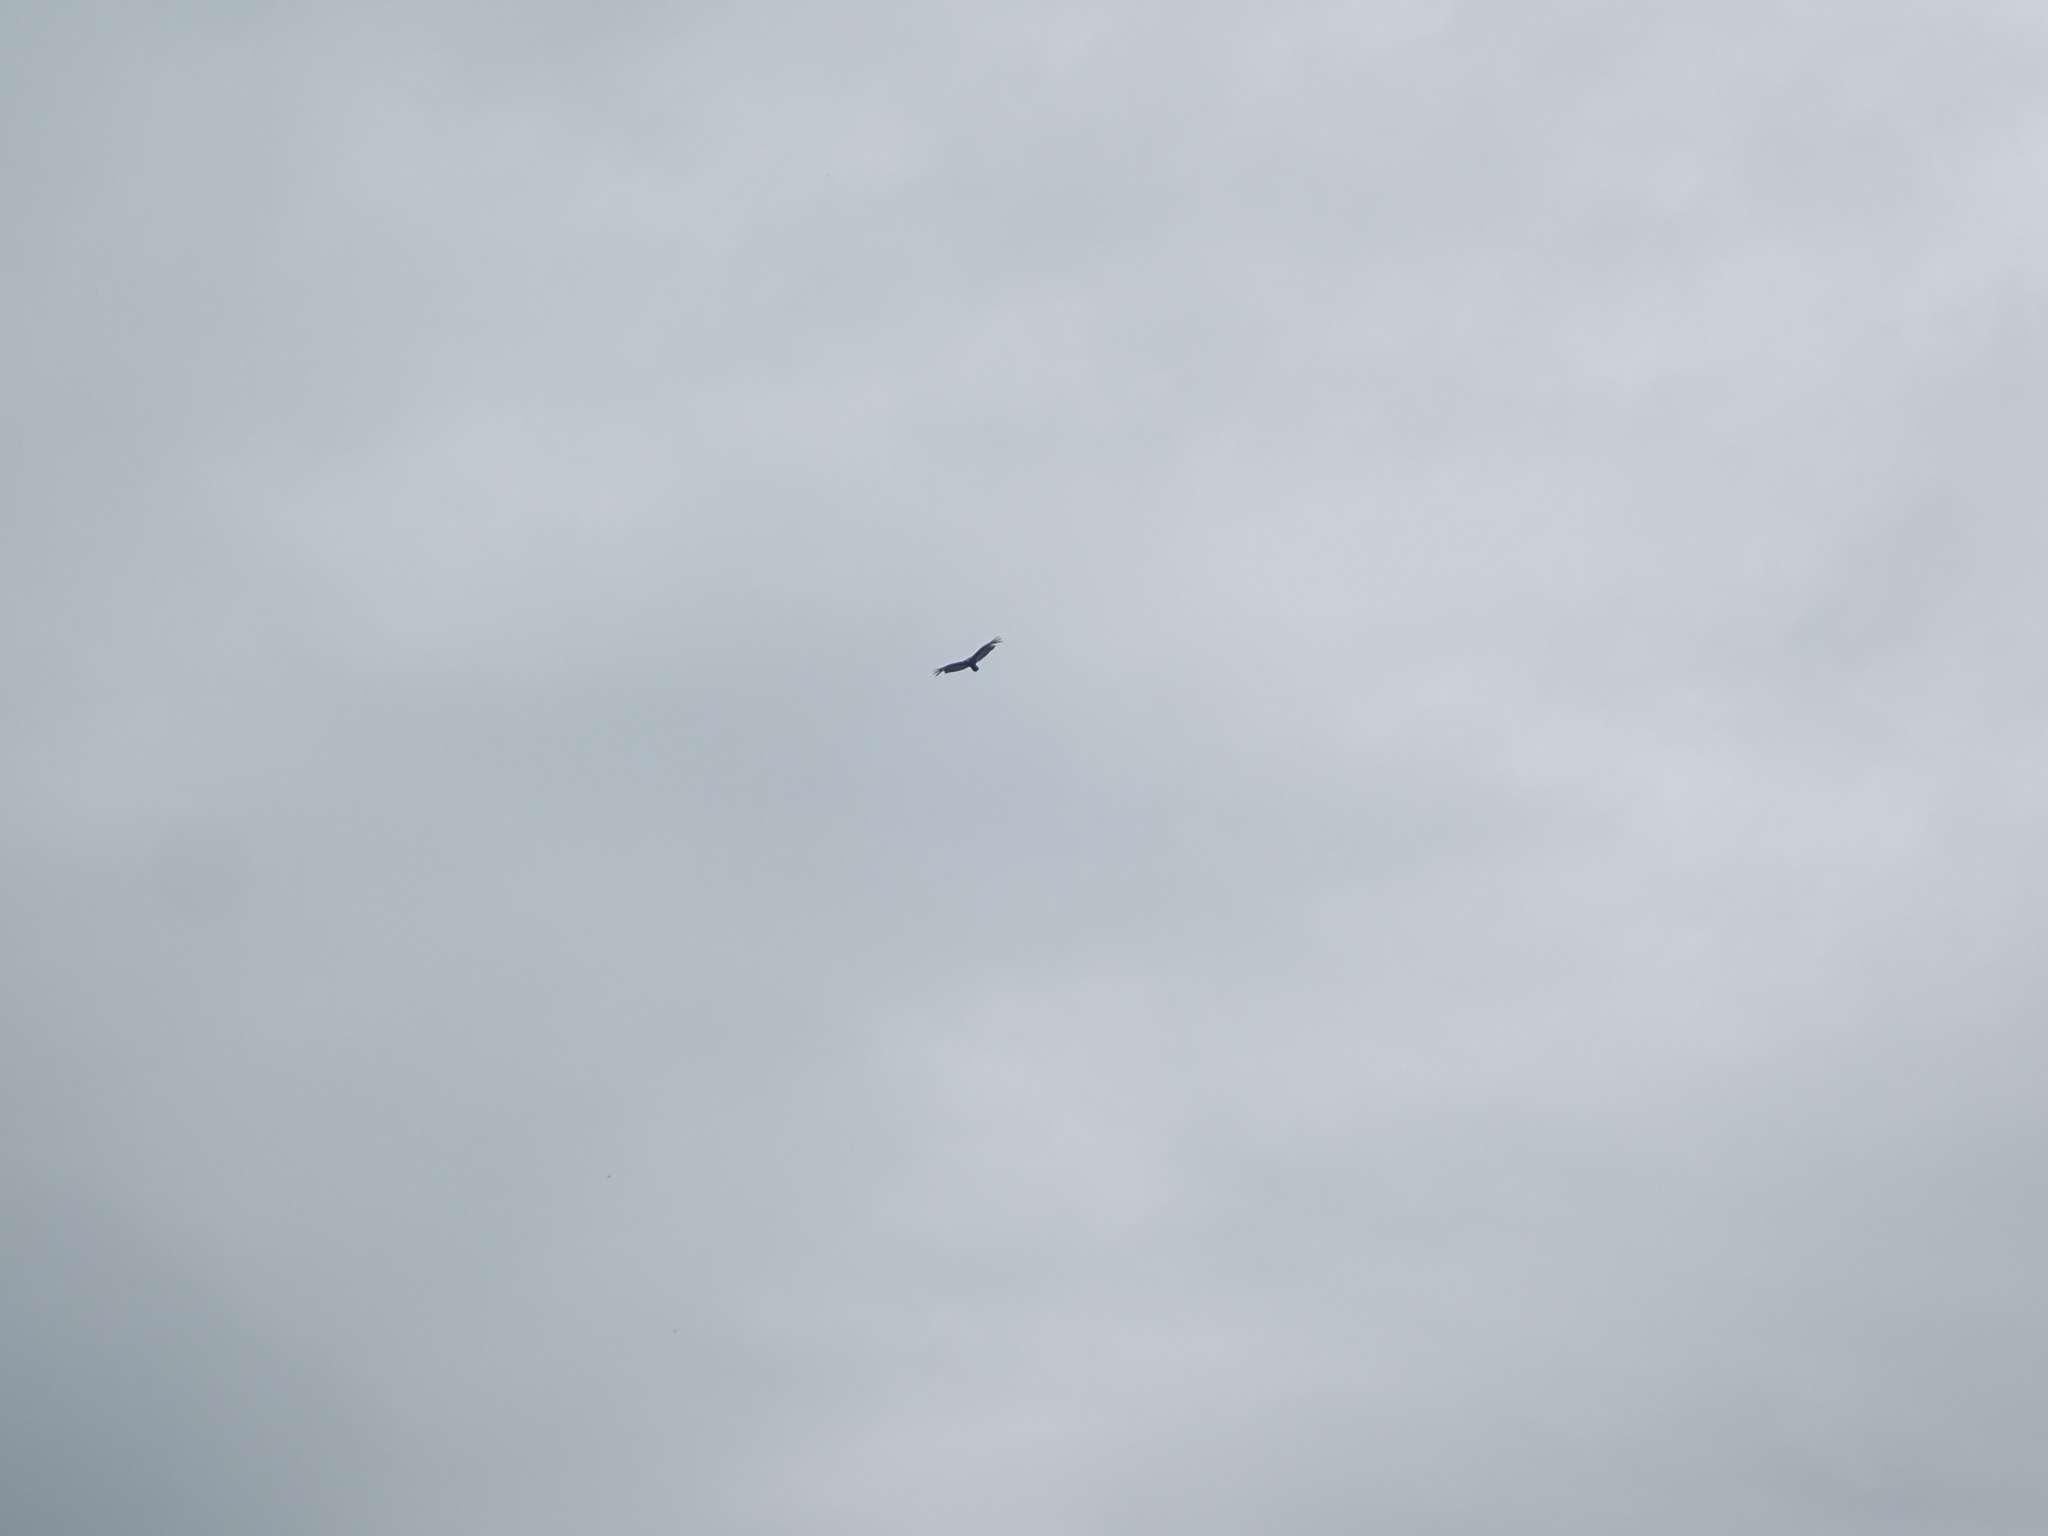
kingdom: Animalia
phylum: Chordata
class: Aves
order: Accipitriformes
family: Cathartidae
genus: Cathartes
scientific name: Cathartes aura
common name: Turkey vulture
